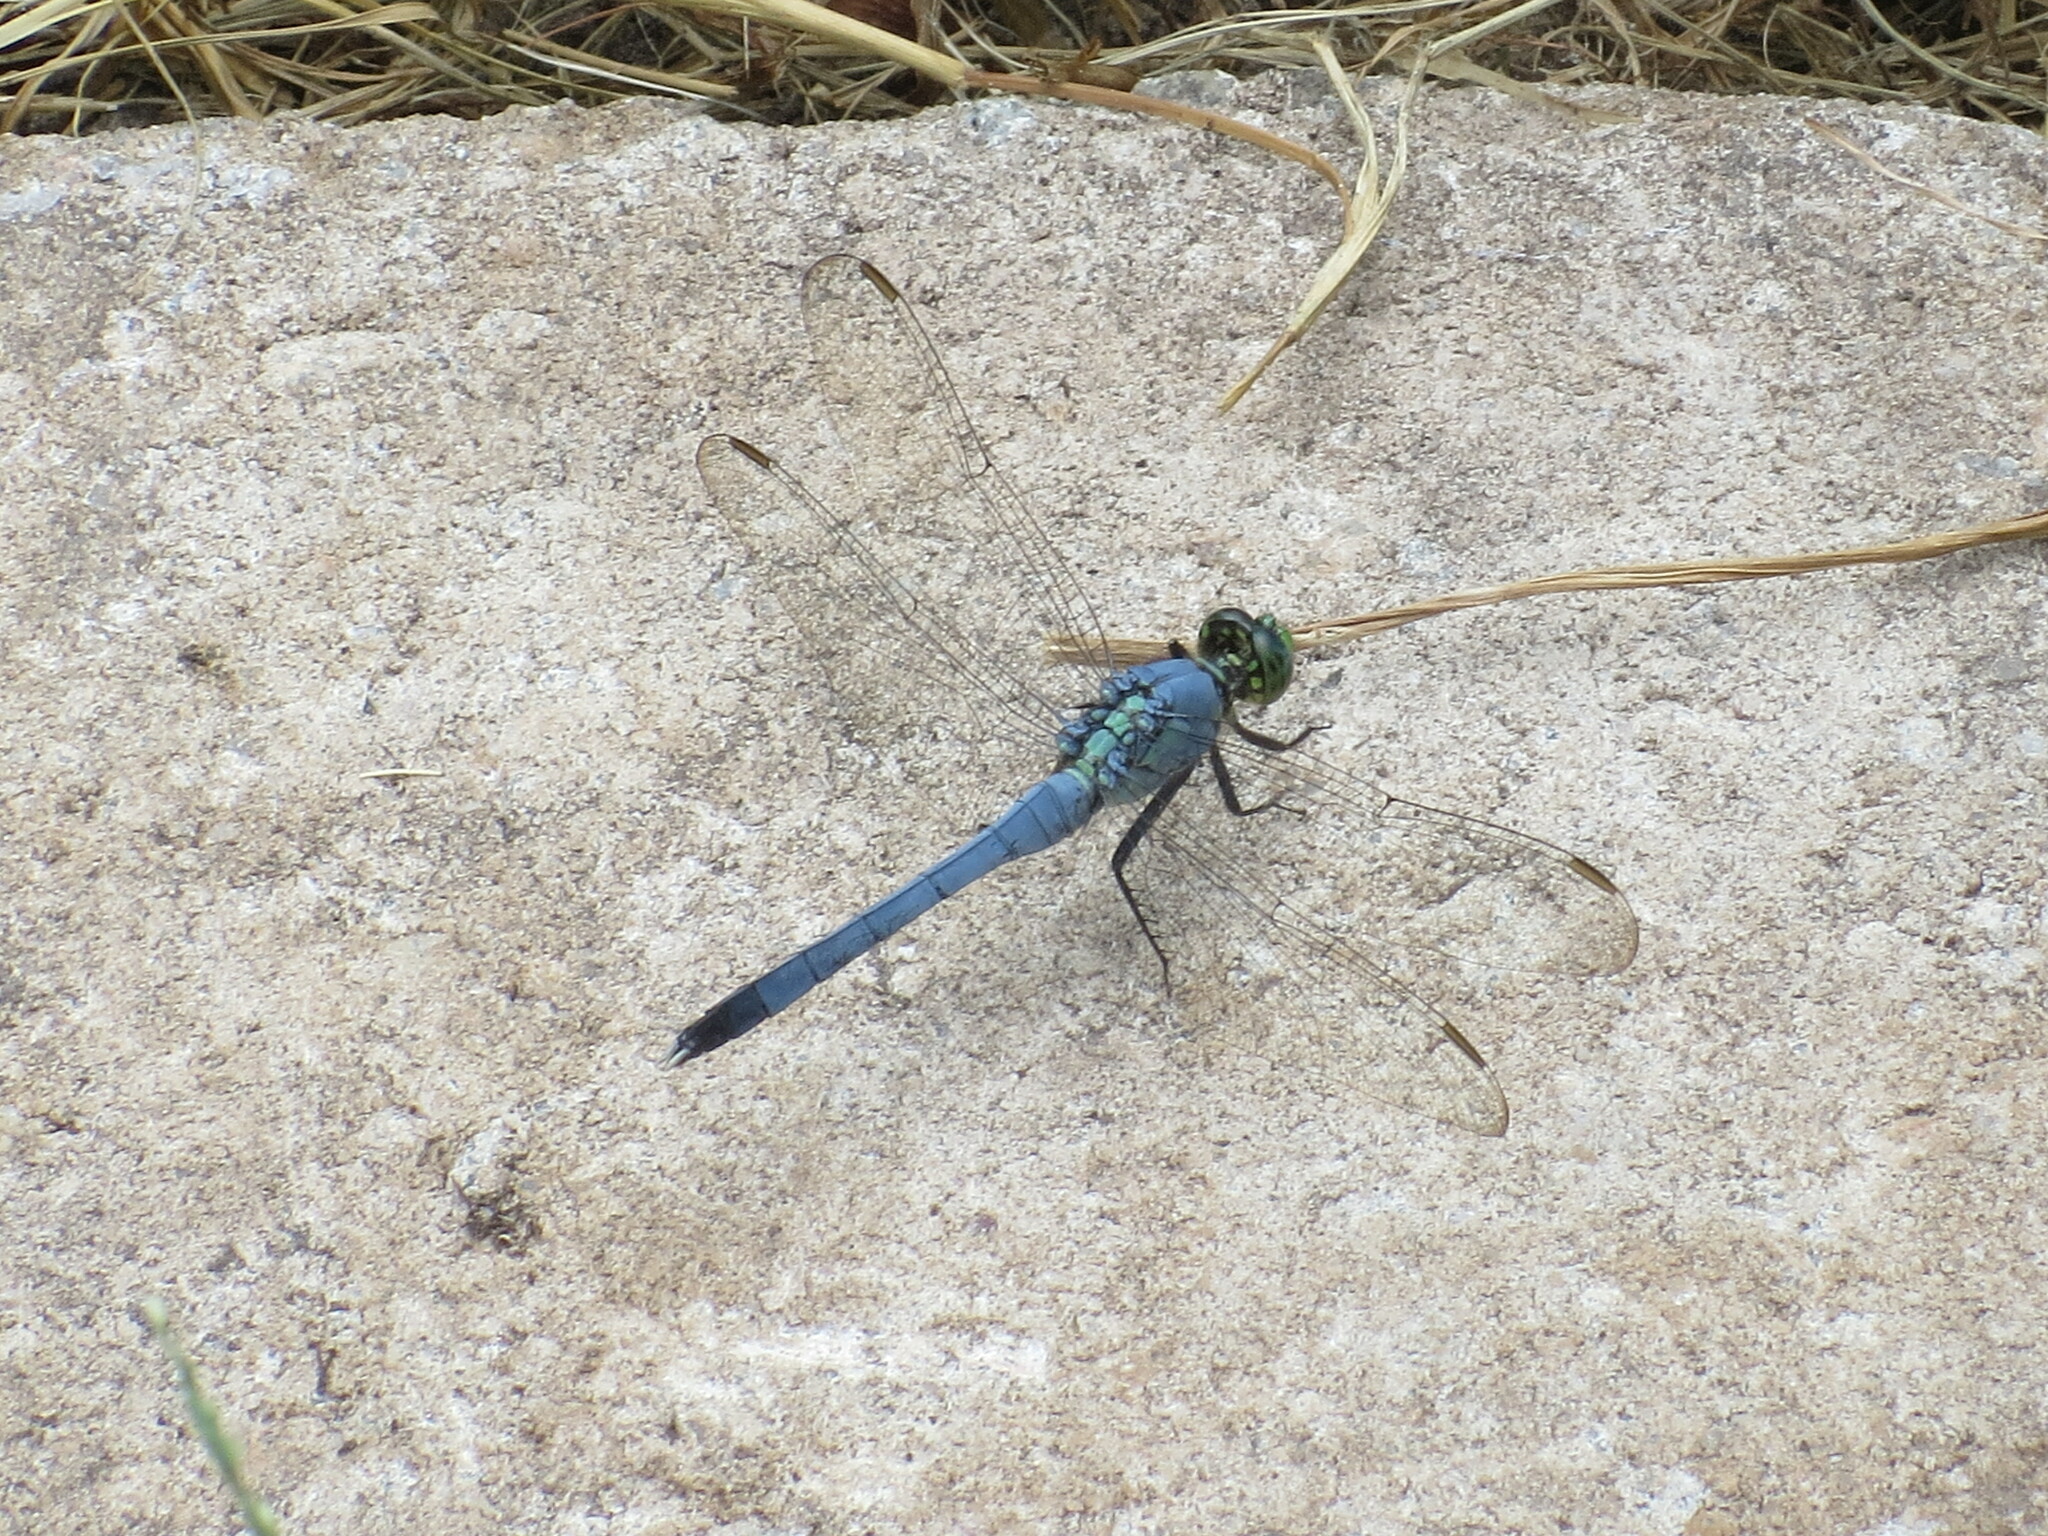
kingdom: Animalia
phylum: Arthropoda
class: Insecta
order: Odonata
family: Libellulidae
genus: Erythemis
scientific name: Erythemis simplicicollis
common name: Eastern pondhawk
